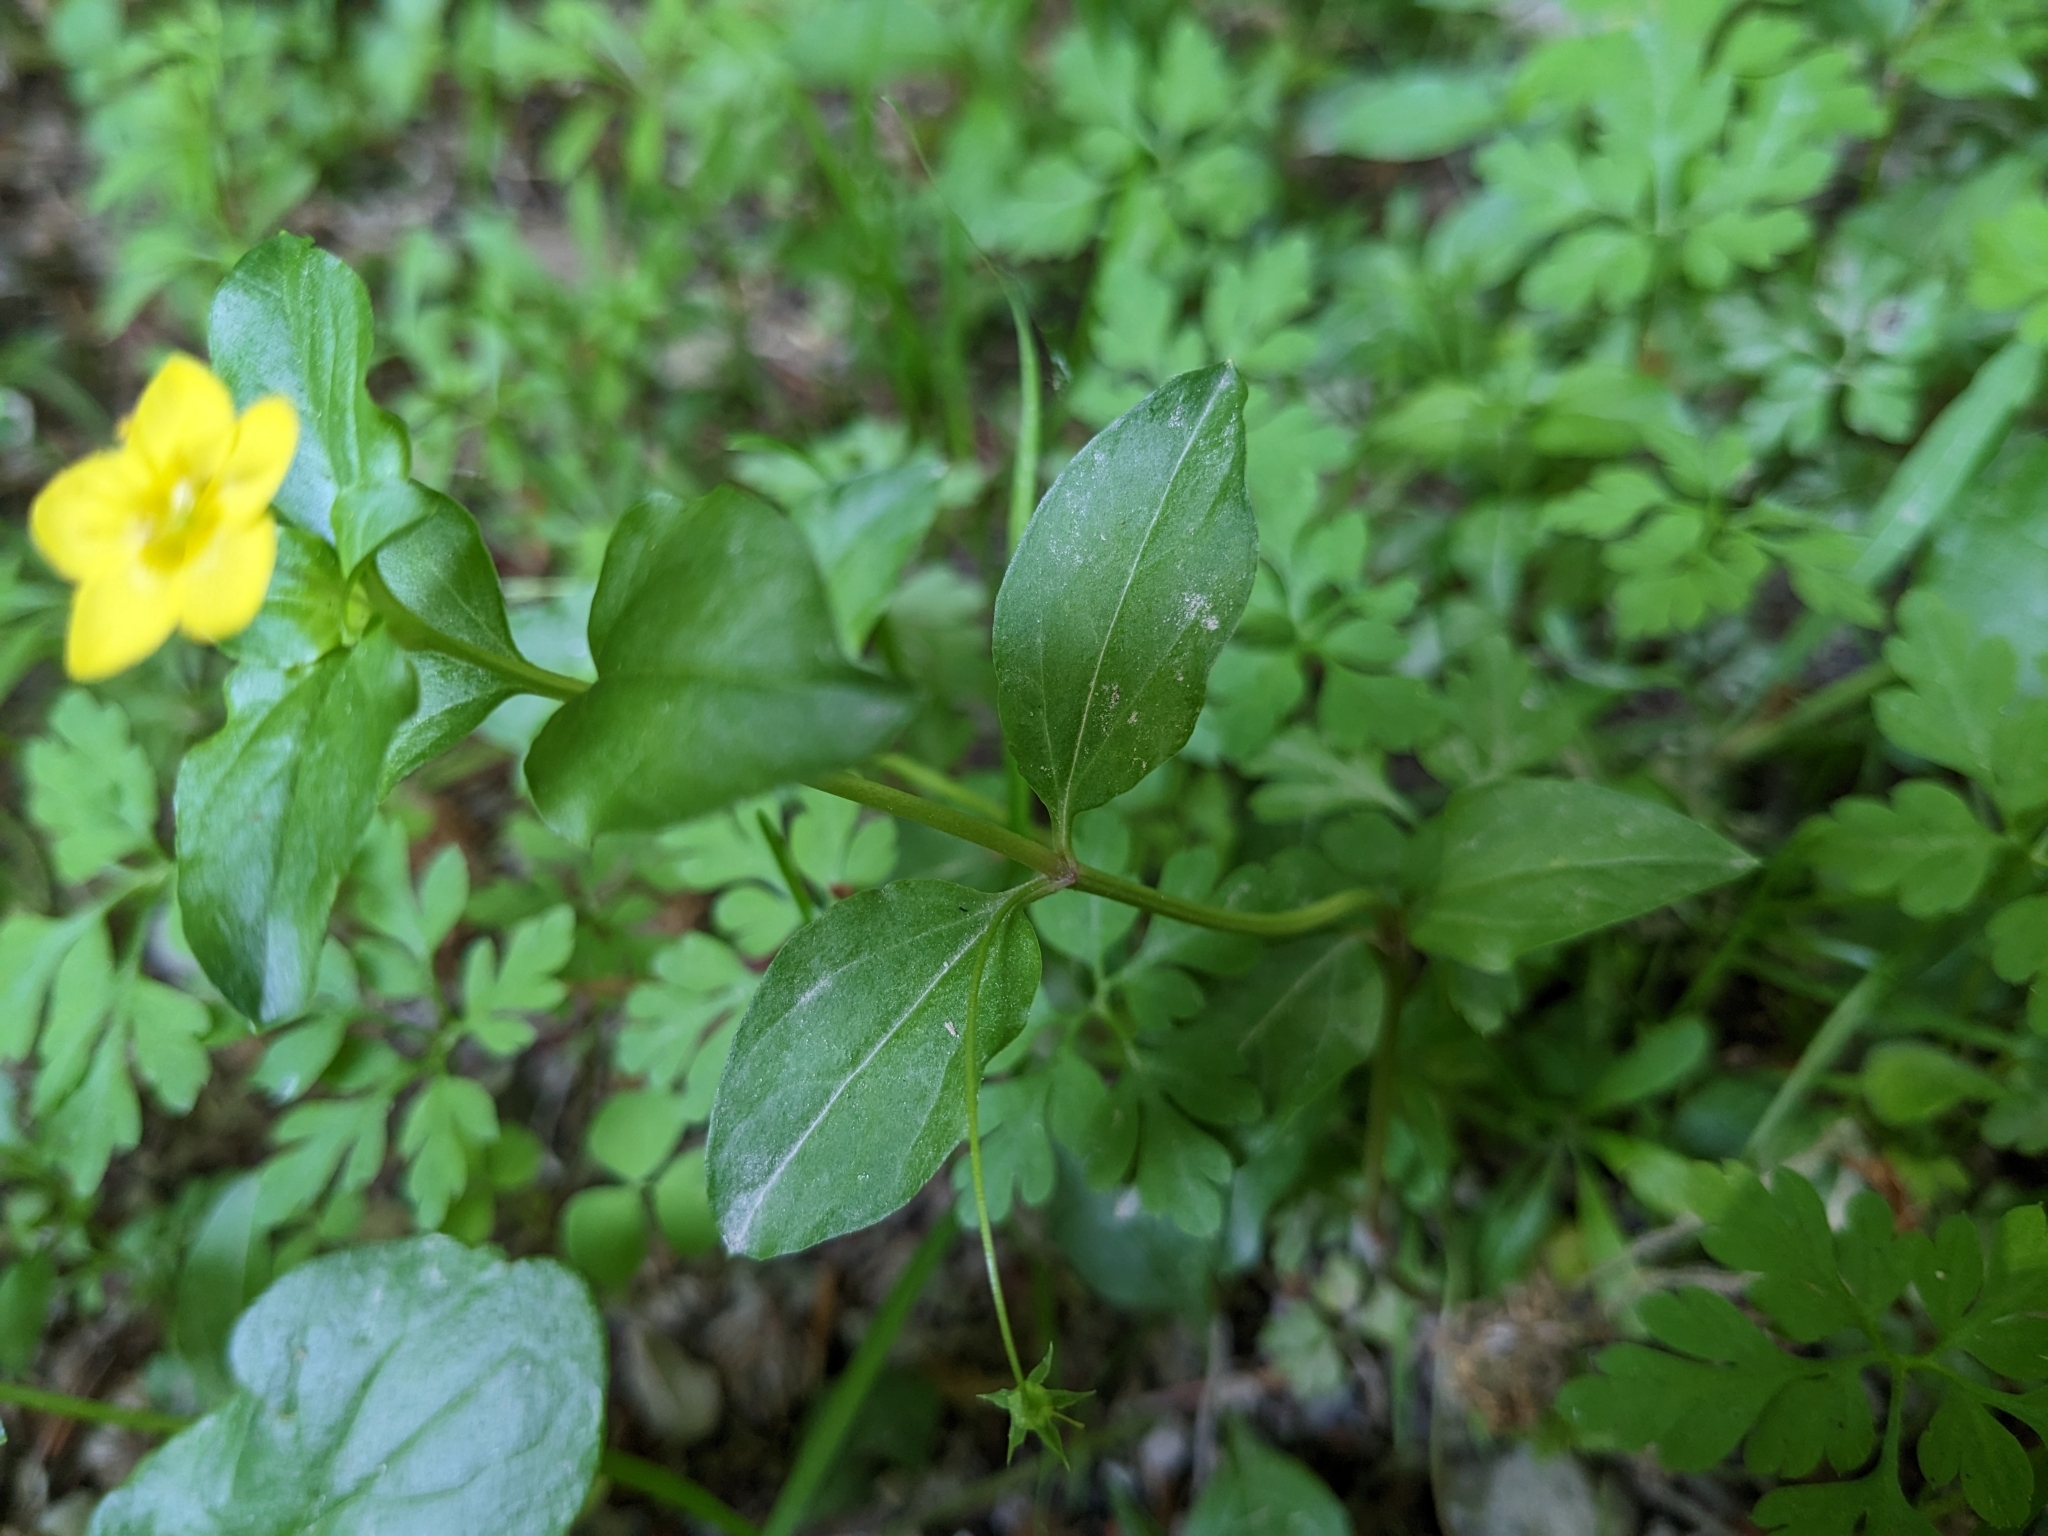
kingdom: Plantae
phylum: Tracheophyta
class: Magnoliopsida
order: Ericales
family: Primulaceae
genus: Lysimachia
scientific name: Lysimachia nemorum
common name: Yellow pimpernel
